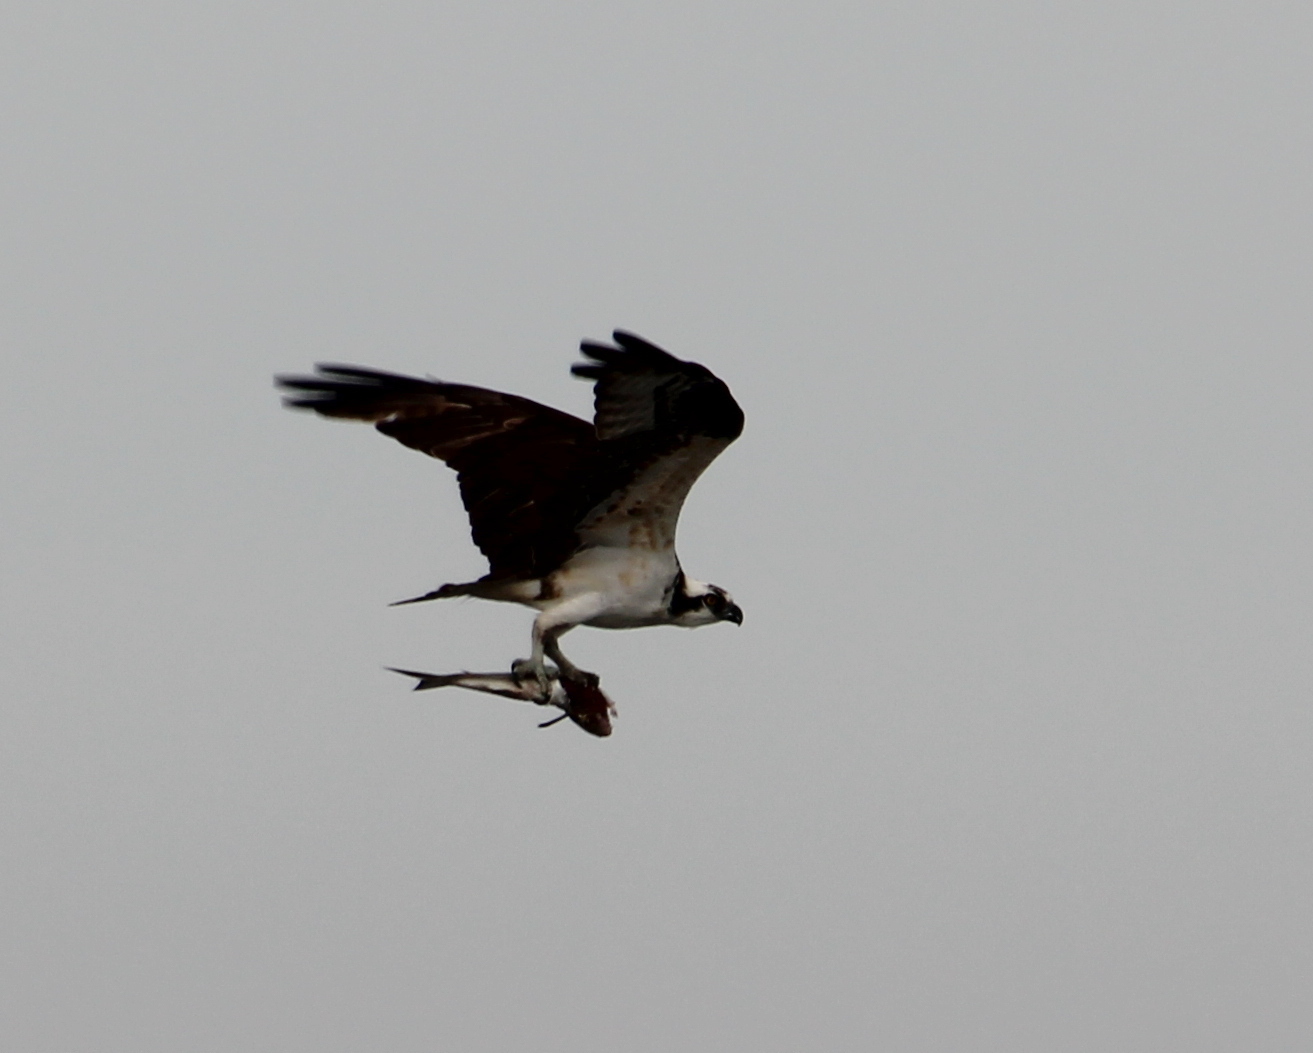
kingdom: Animalia
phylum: Chordata
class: Aves
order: Accipitriformes
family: Pandionidae
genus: Pandion
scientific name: Pandion haliaetus
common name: Osprey
